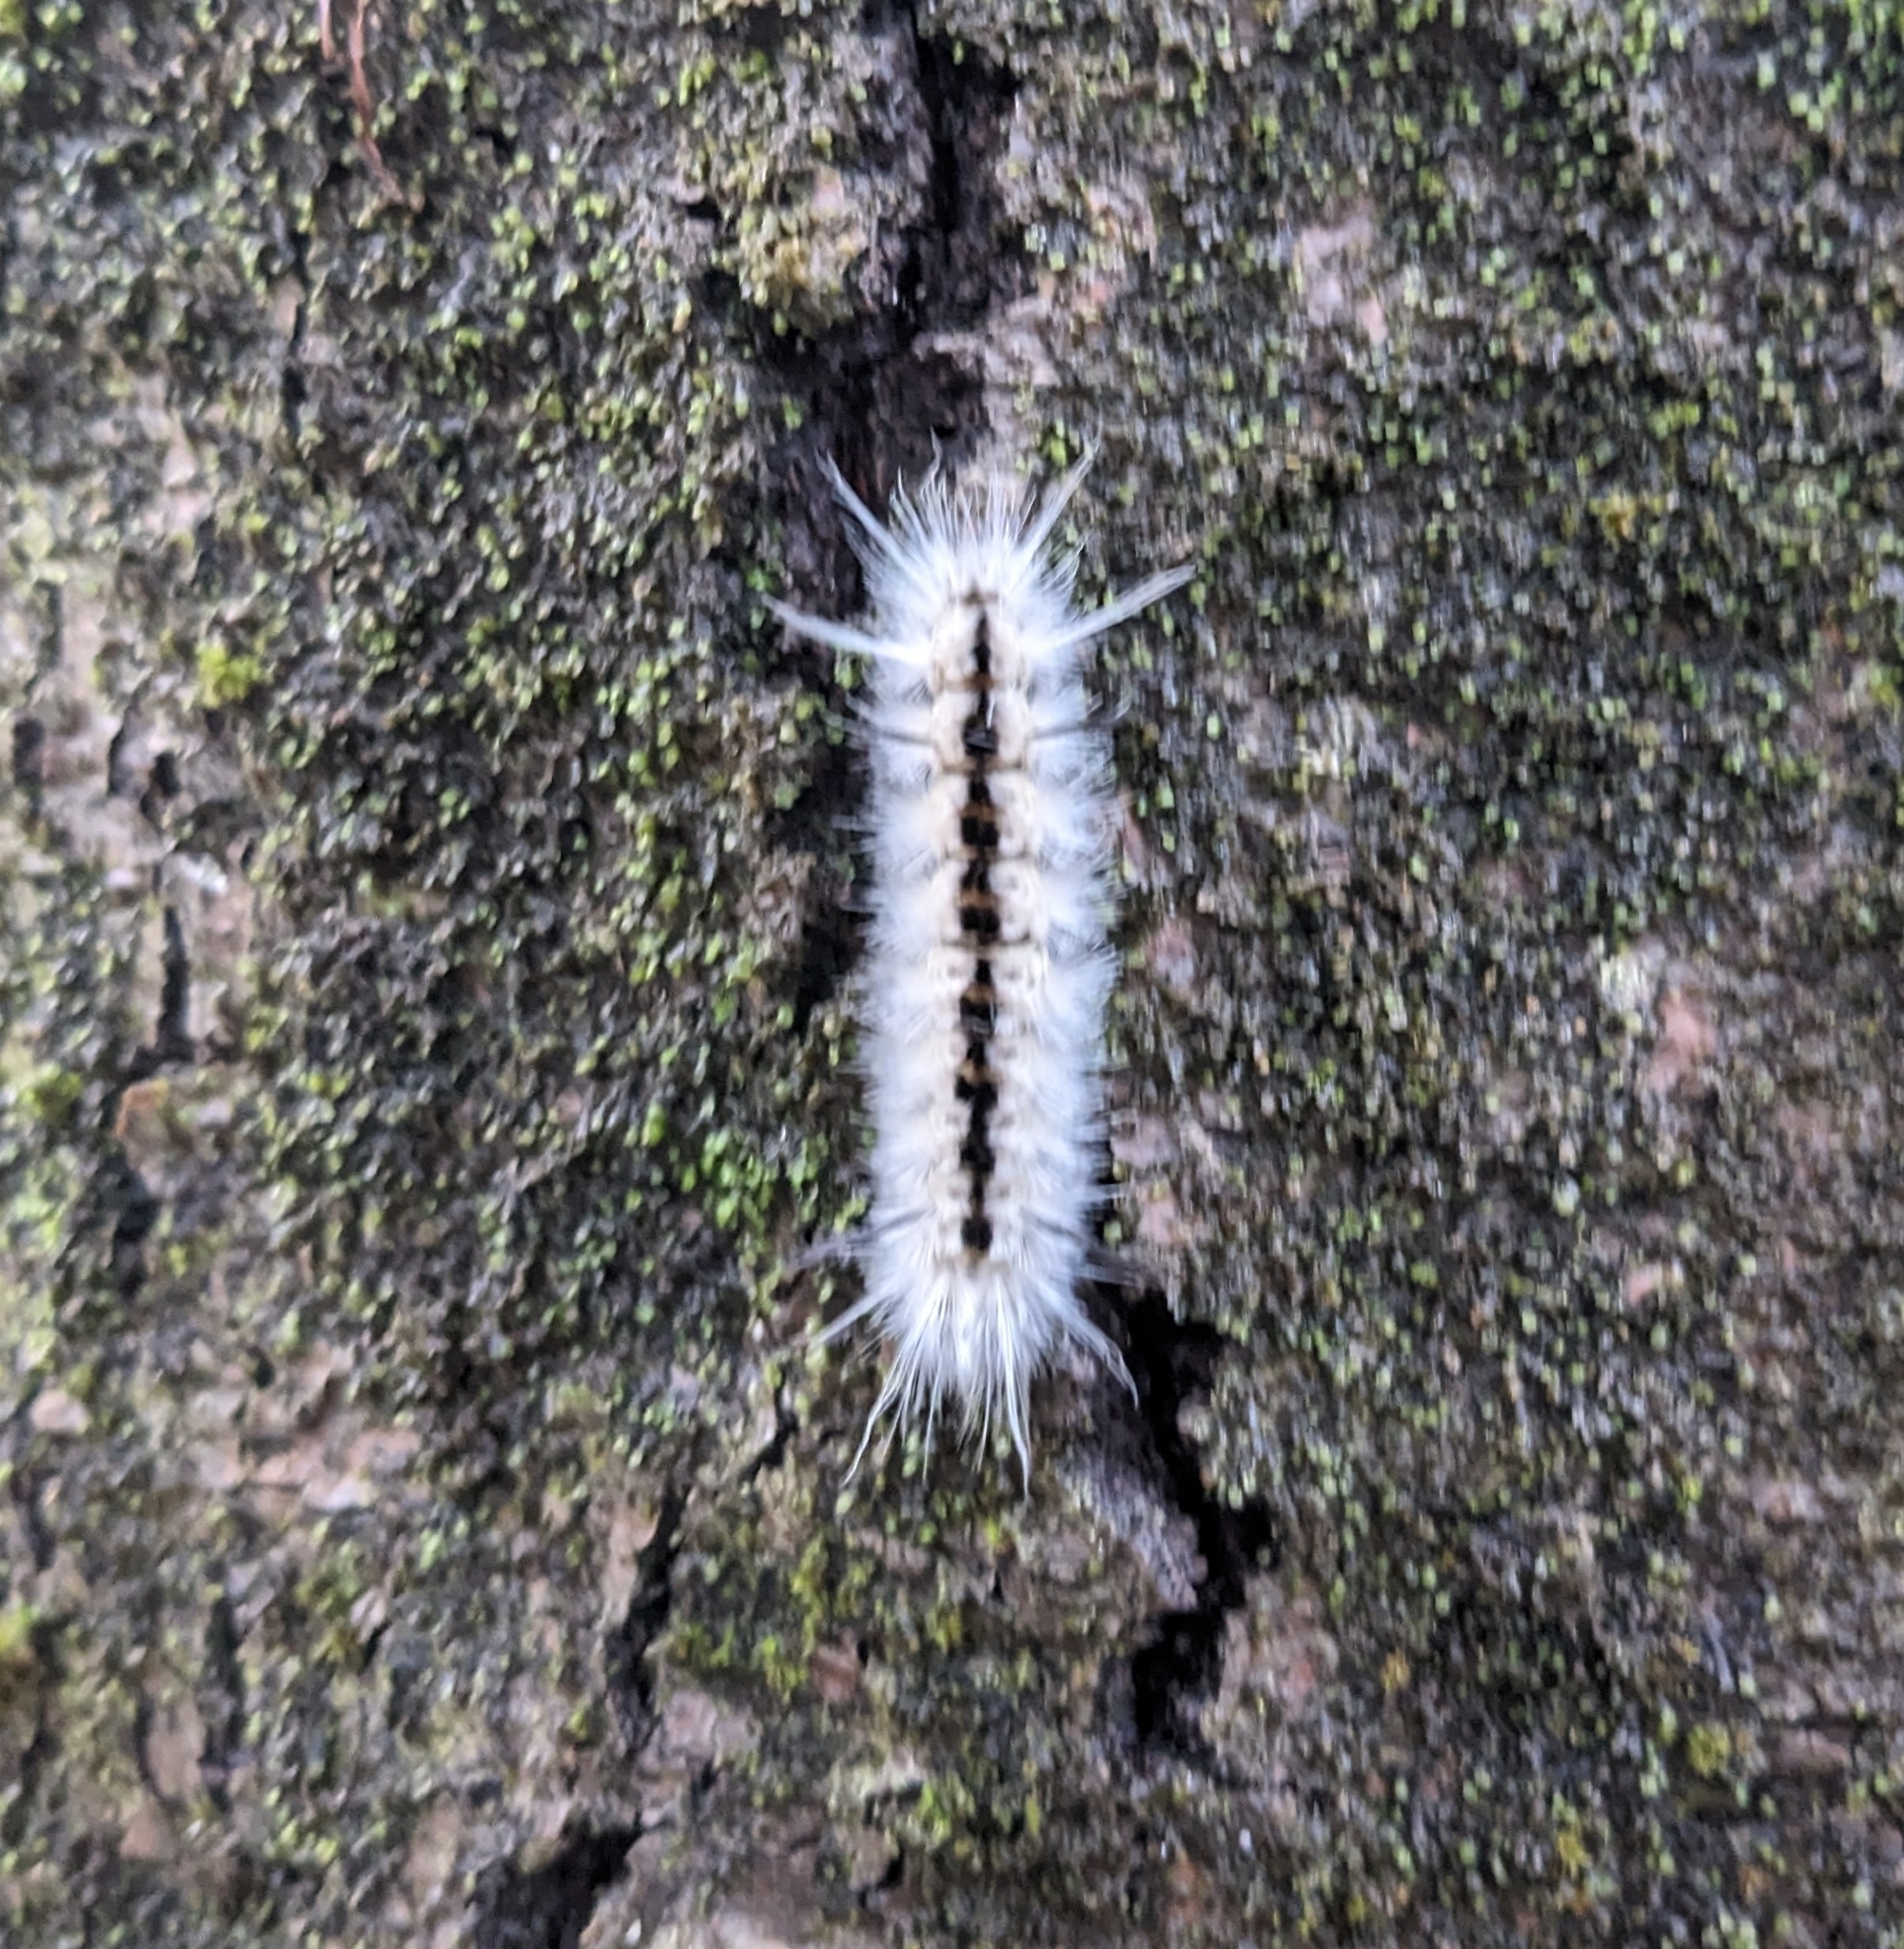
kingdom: Animalia
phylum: Arthropoda
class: Insecta
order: Lepidoptera
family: Erebidae
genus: Lophocampa
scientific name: Lophocampa caryae
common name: Hickory tussock moth
